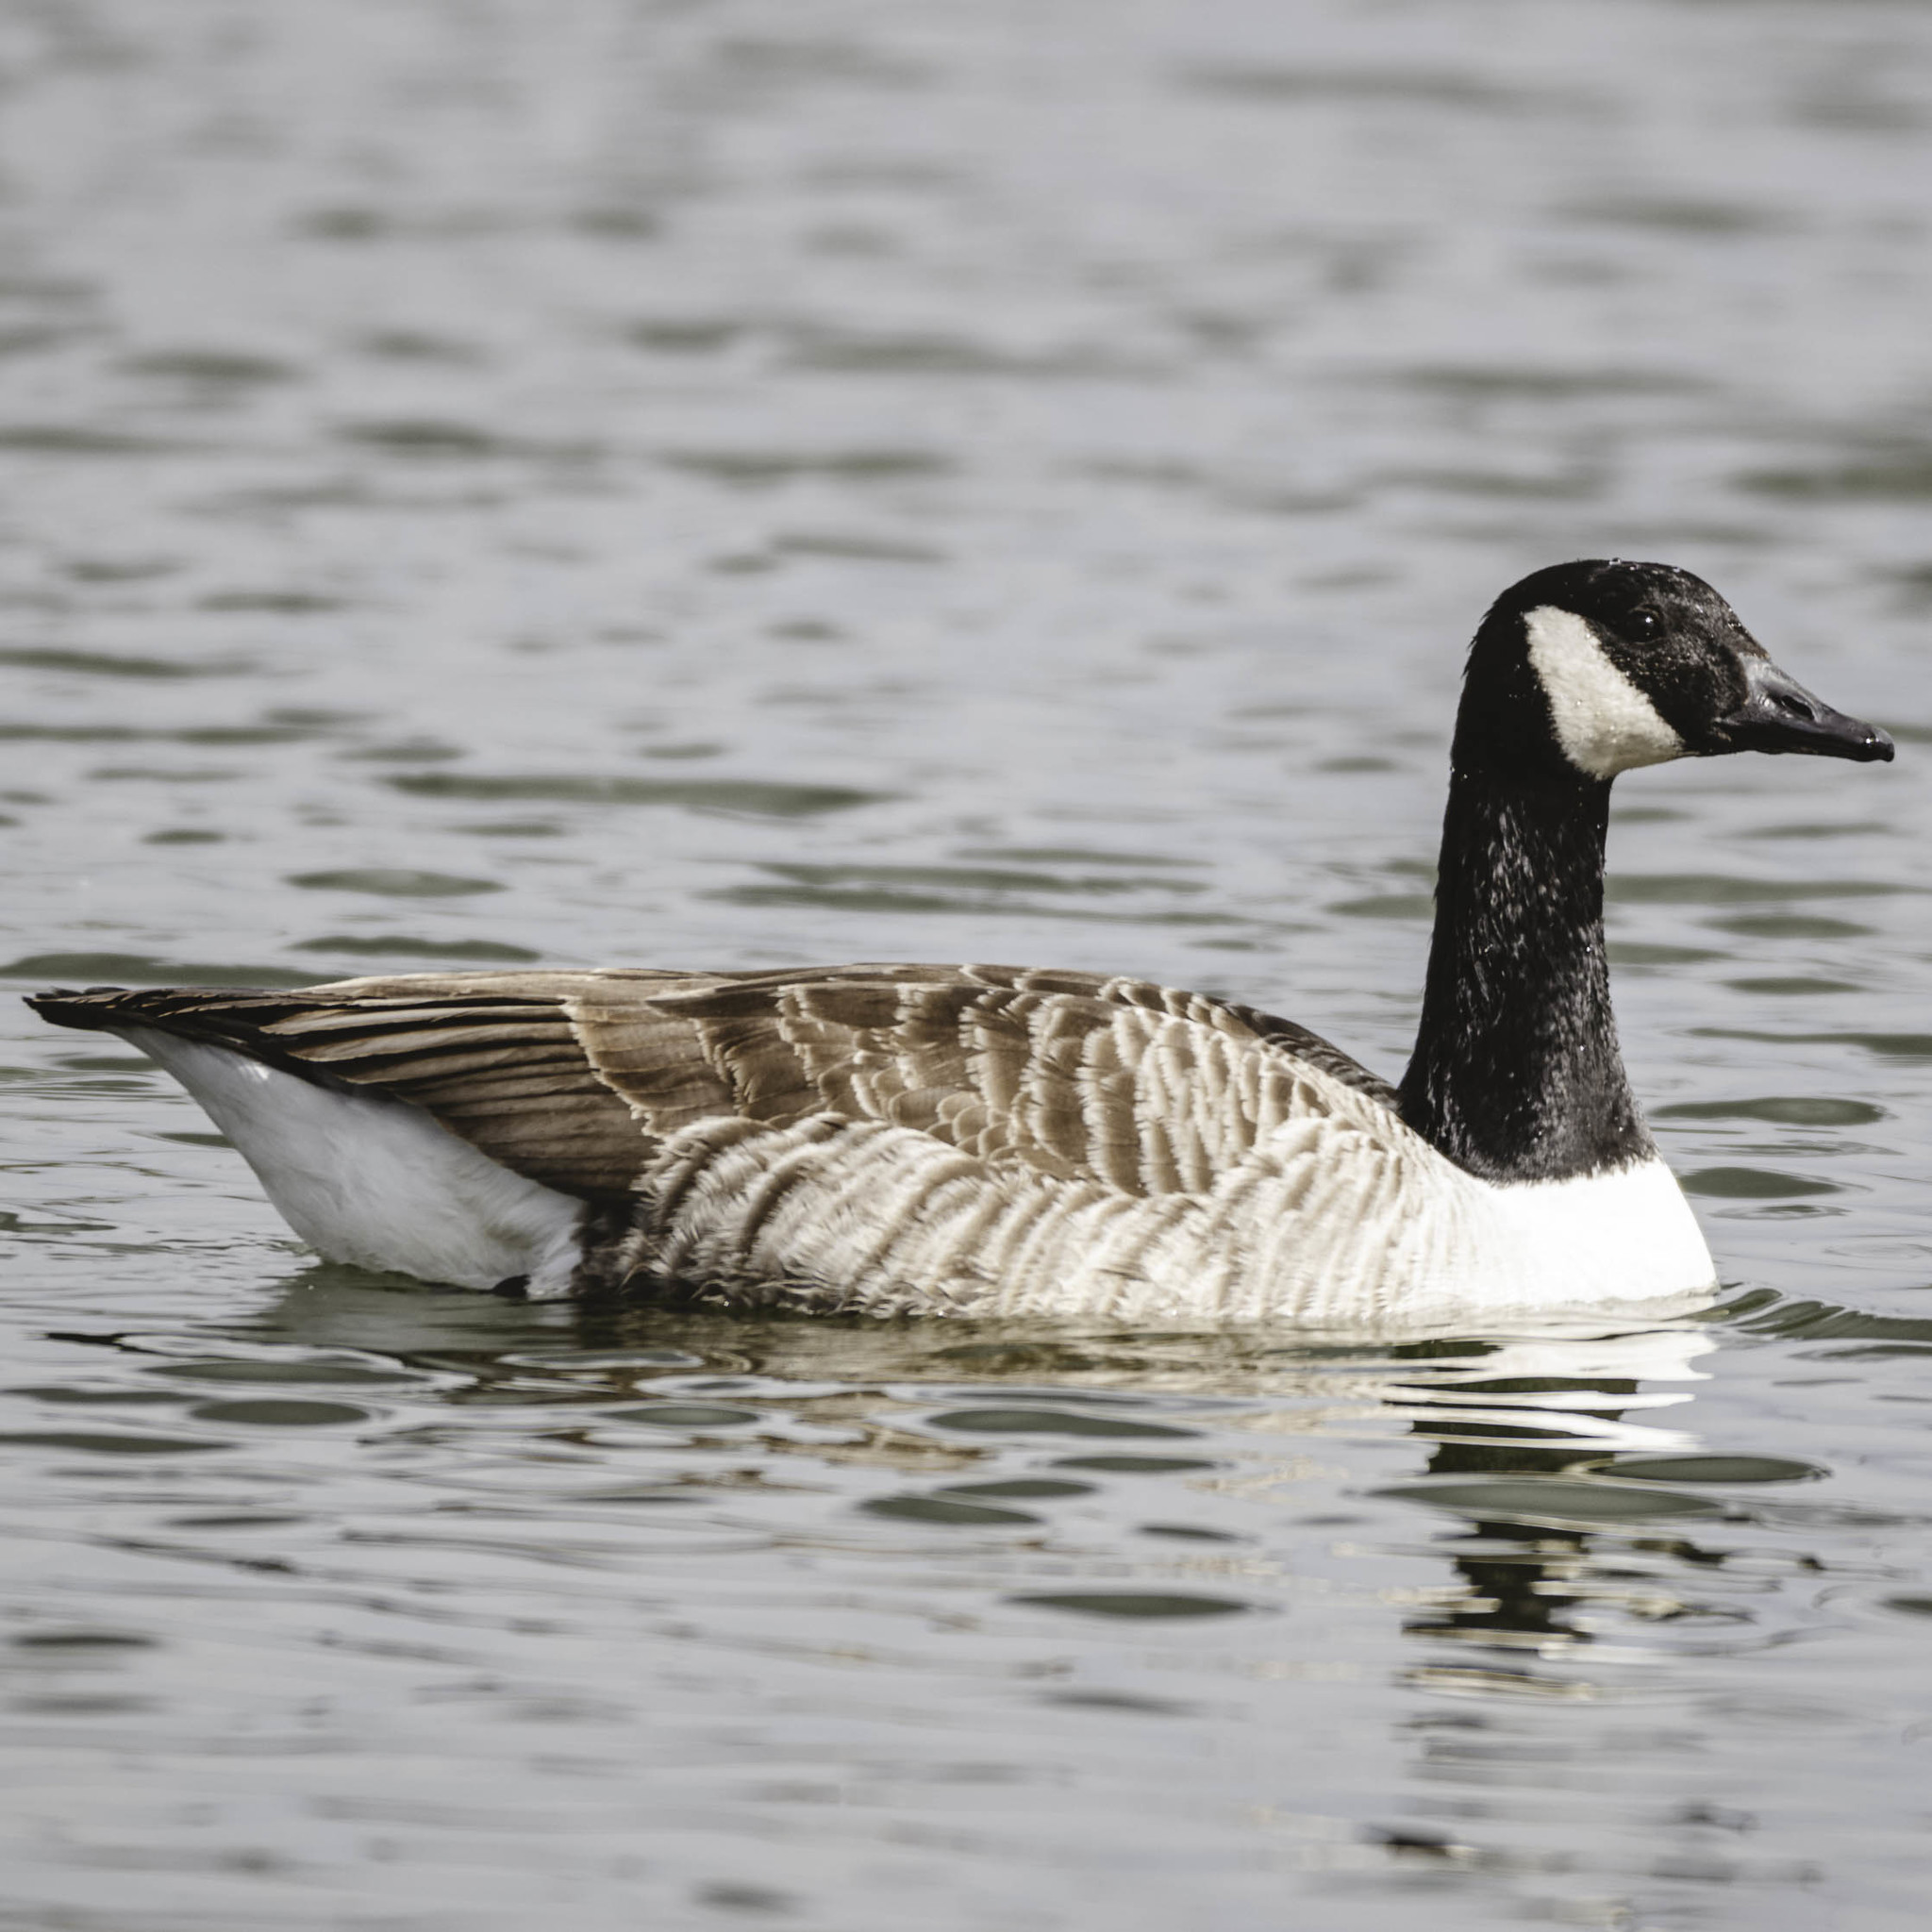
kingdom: Animalia
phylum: Chordata
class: Aves
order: Anseriformes
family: Anatidae
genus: Branta
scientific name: Branta canadensis
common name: Canada goose
